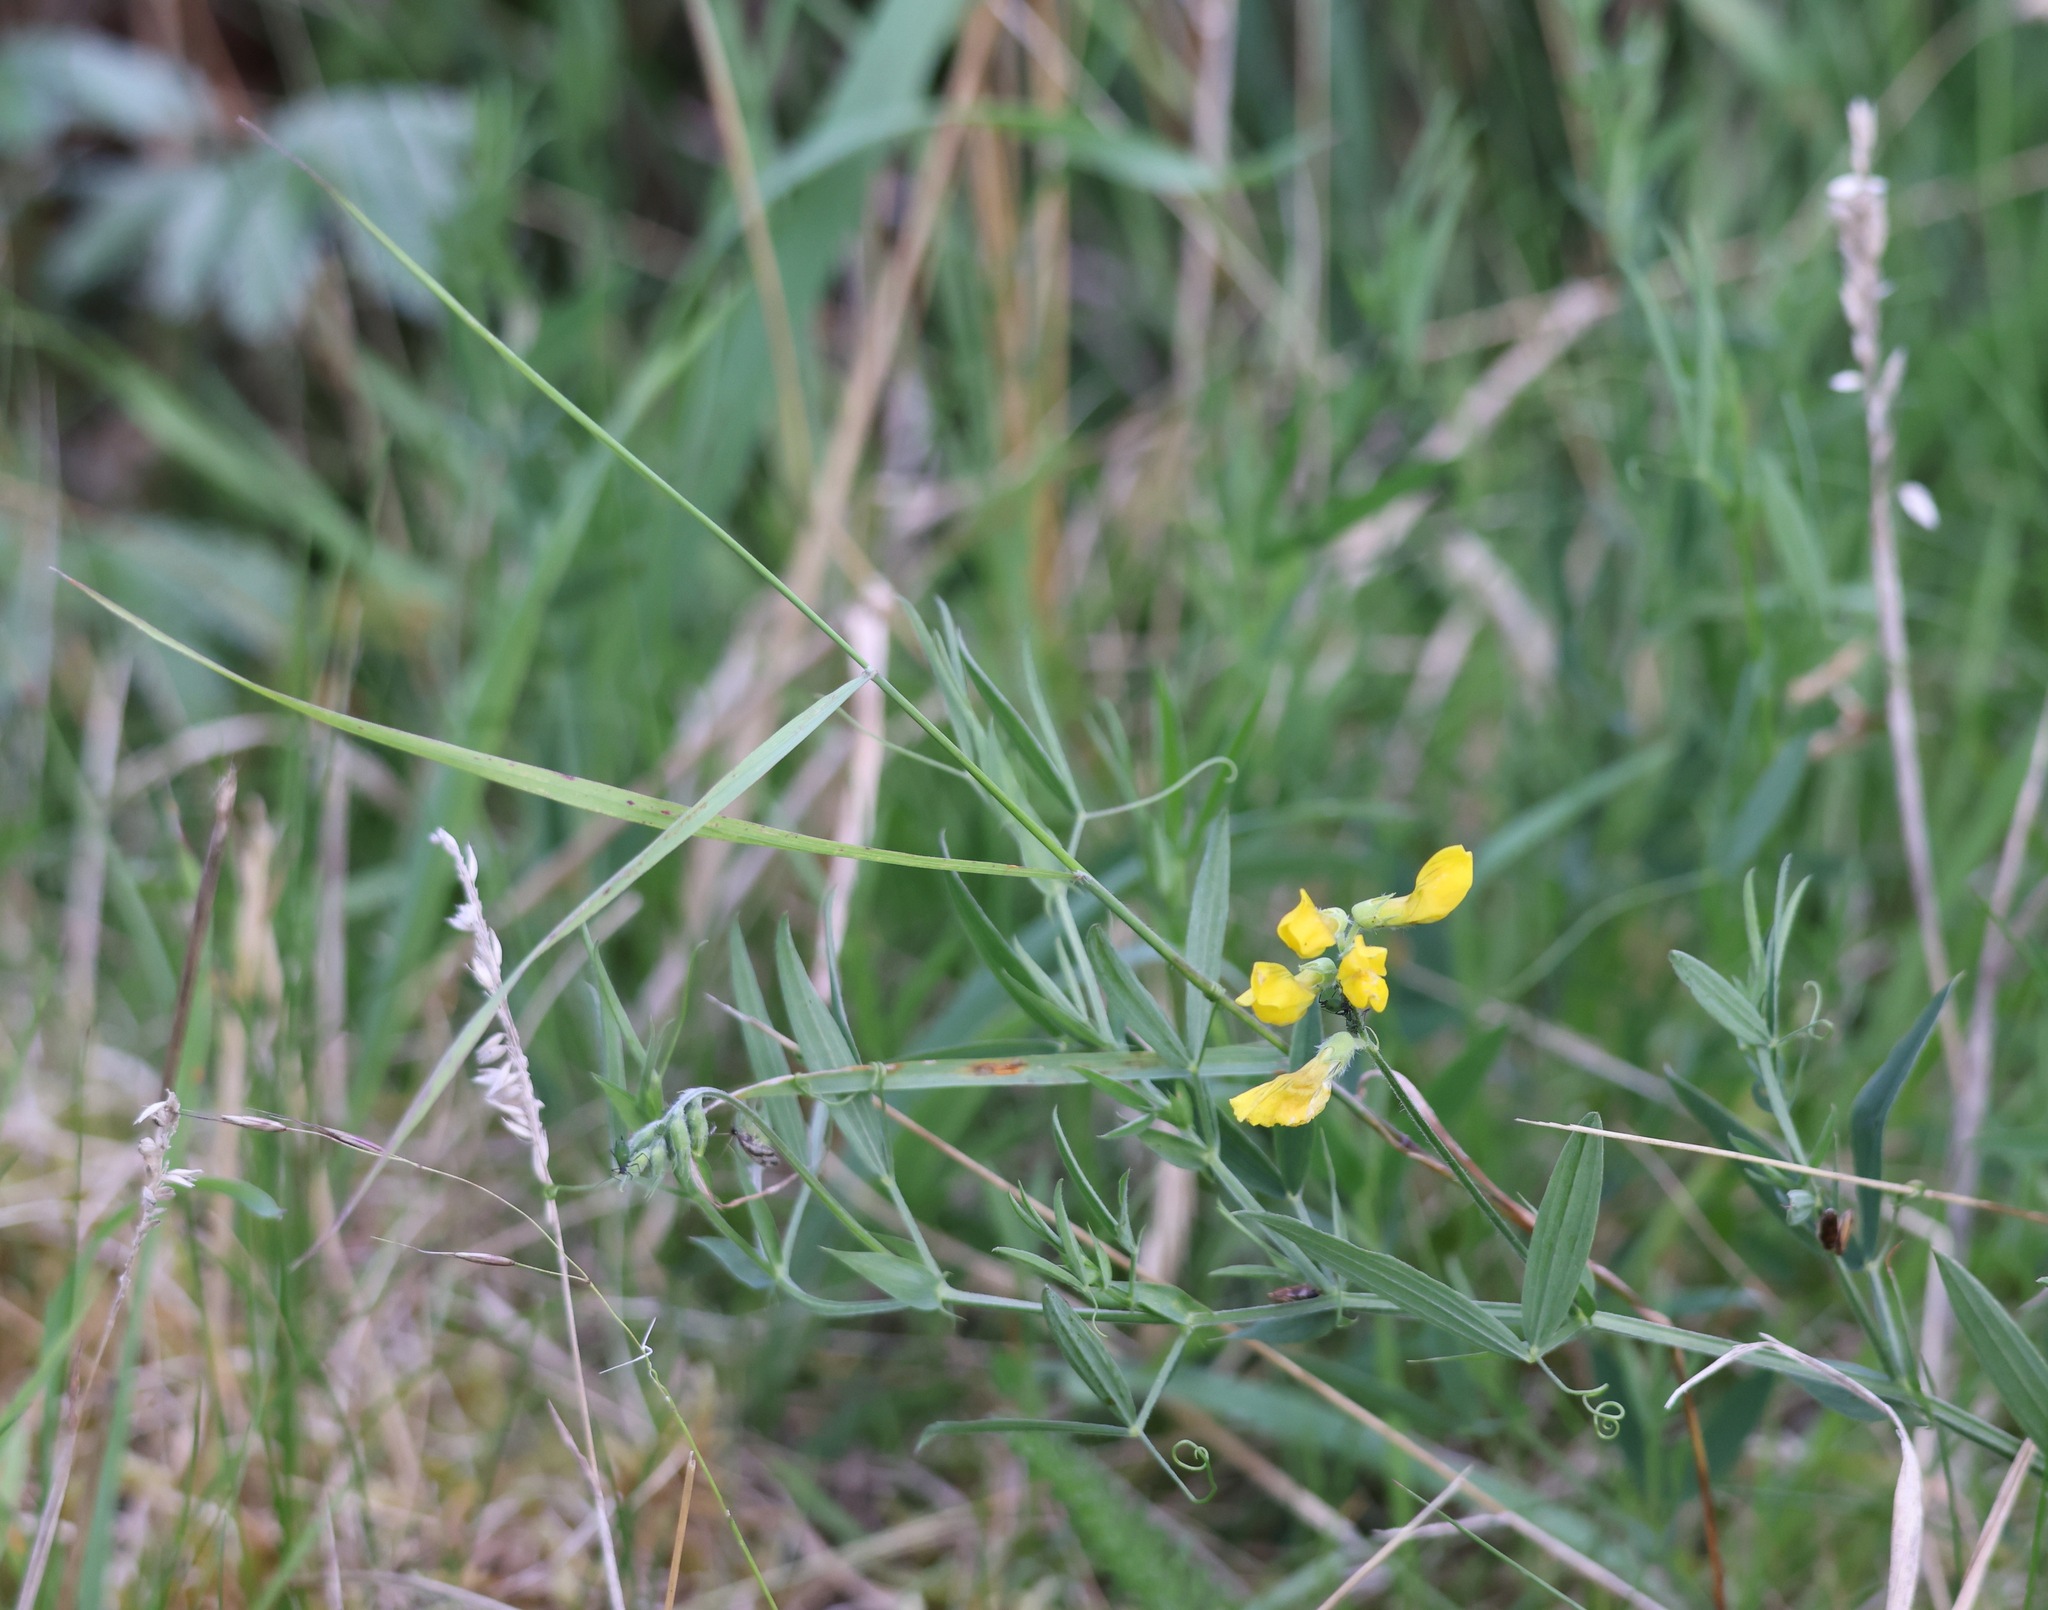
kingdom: Plantae
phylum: Tracheophyta
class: Magnoliopsida
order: Fabales
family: Fabaceae
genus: Lathyrus
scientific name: Lathyrus pratensis
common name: Meadow vetchling
